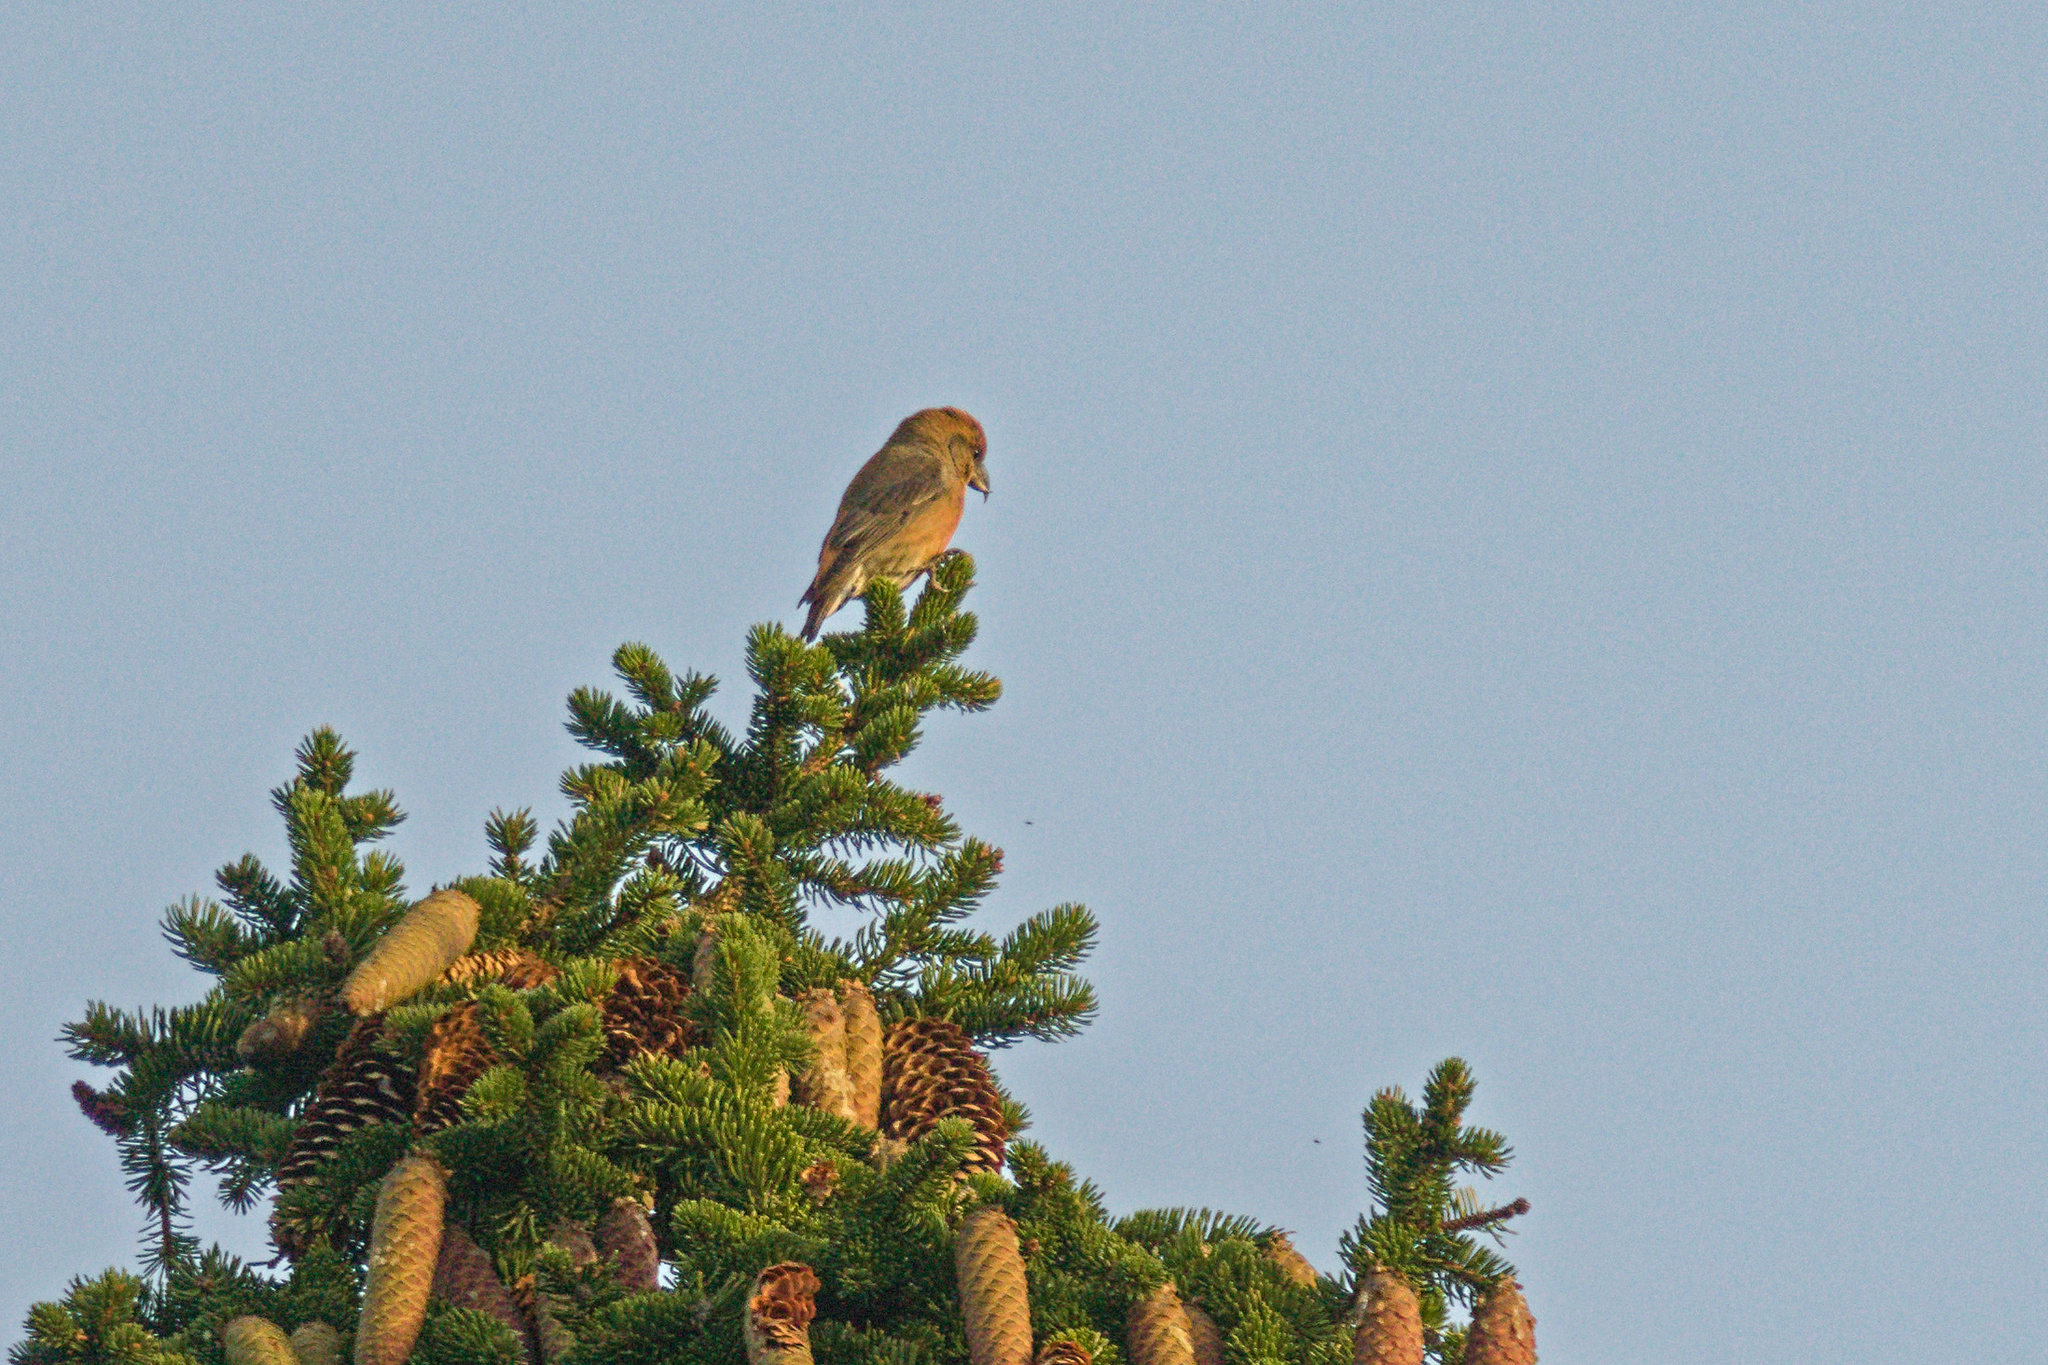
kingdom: Animalia
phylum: Chordata
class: Aves
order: Passeriformes
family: Fringillidae
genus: Loxia
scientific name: Loxia curvirostra
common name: Red crossbill
